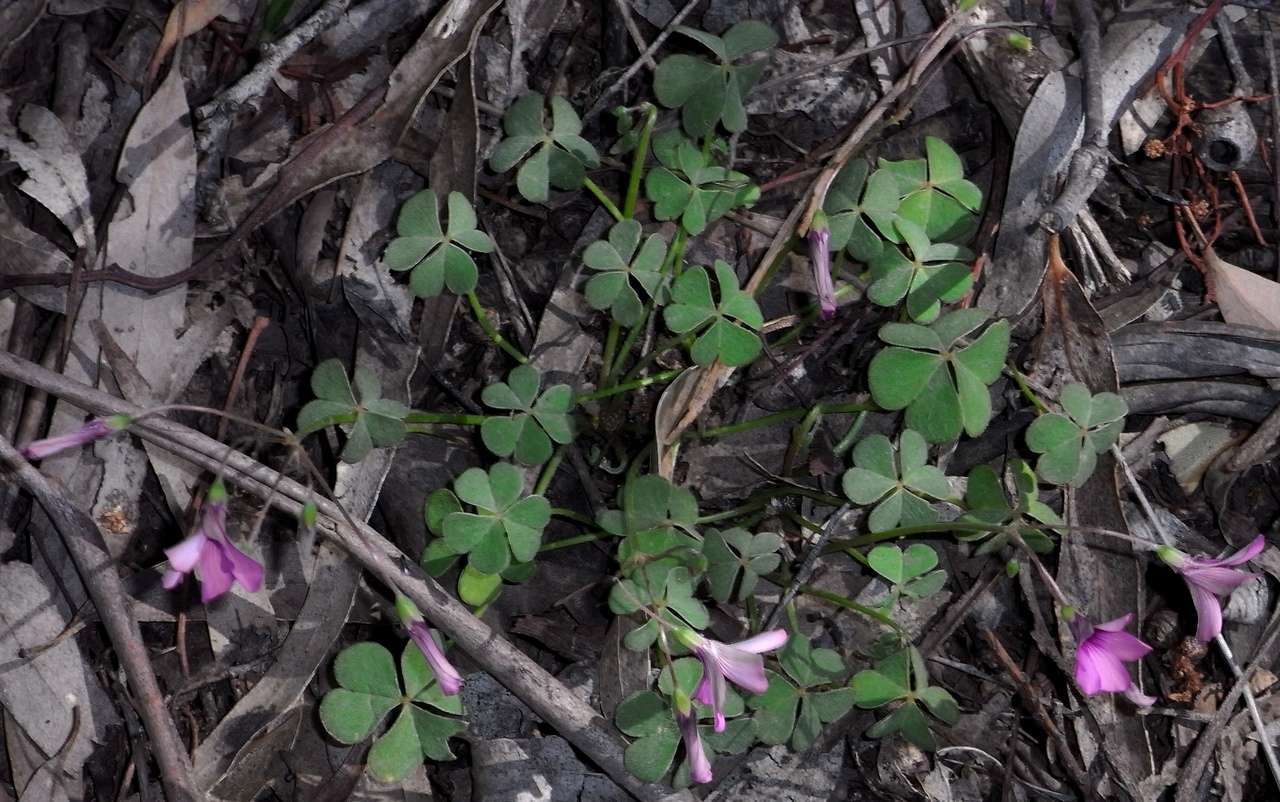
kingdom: Plantae
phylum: Tracheophyta
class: Magnoliopsida
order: Oxalidales
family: Oxalidaceae
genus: Oxalis
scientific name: Oxalis articulata
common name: Pink-sorrel
